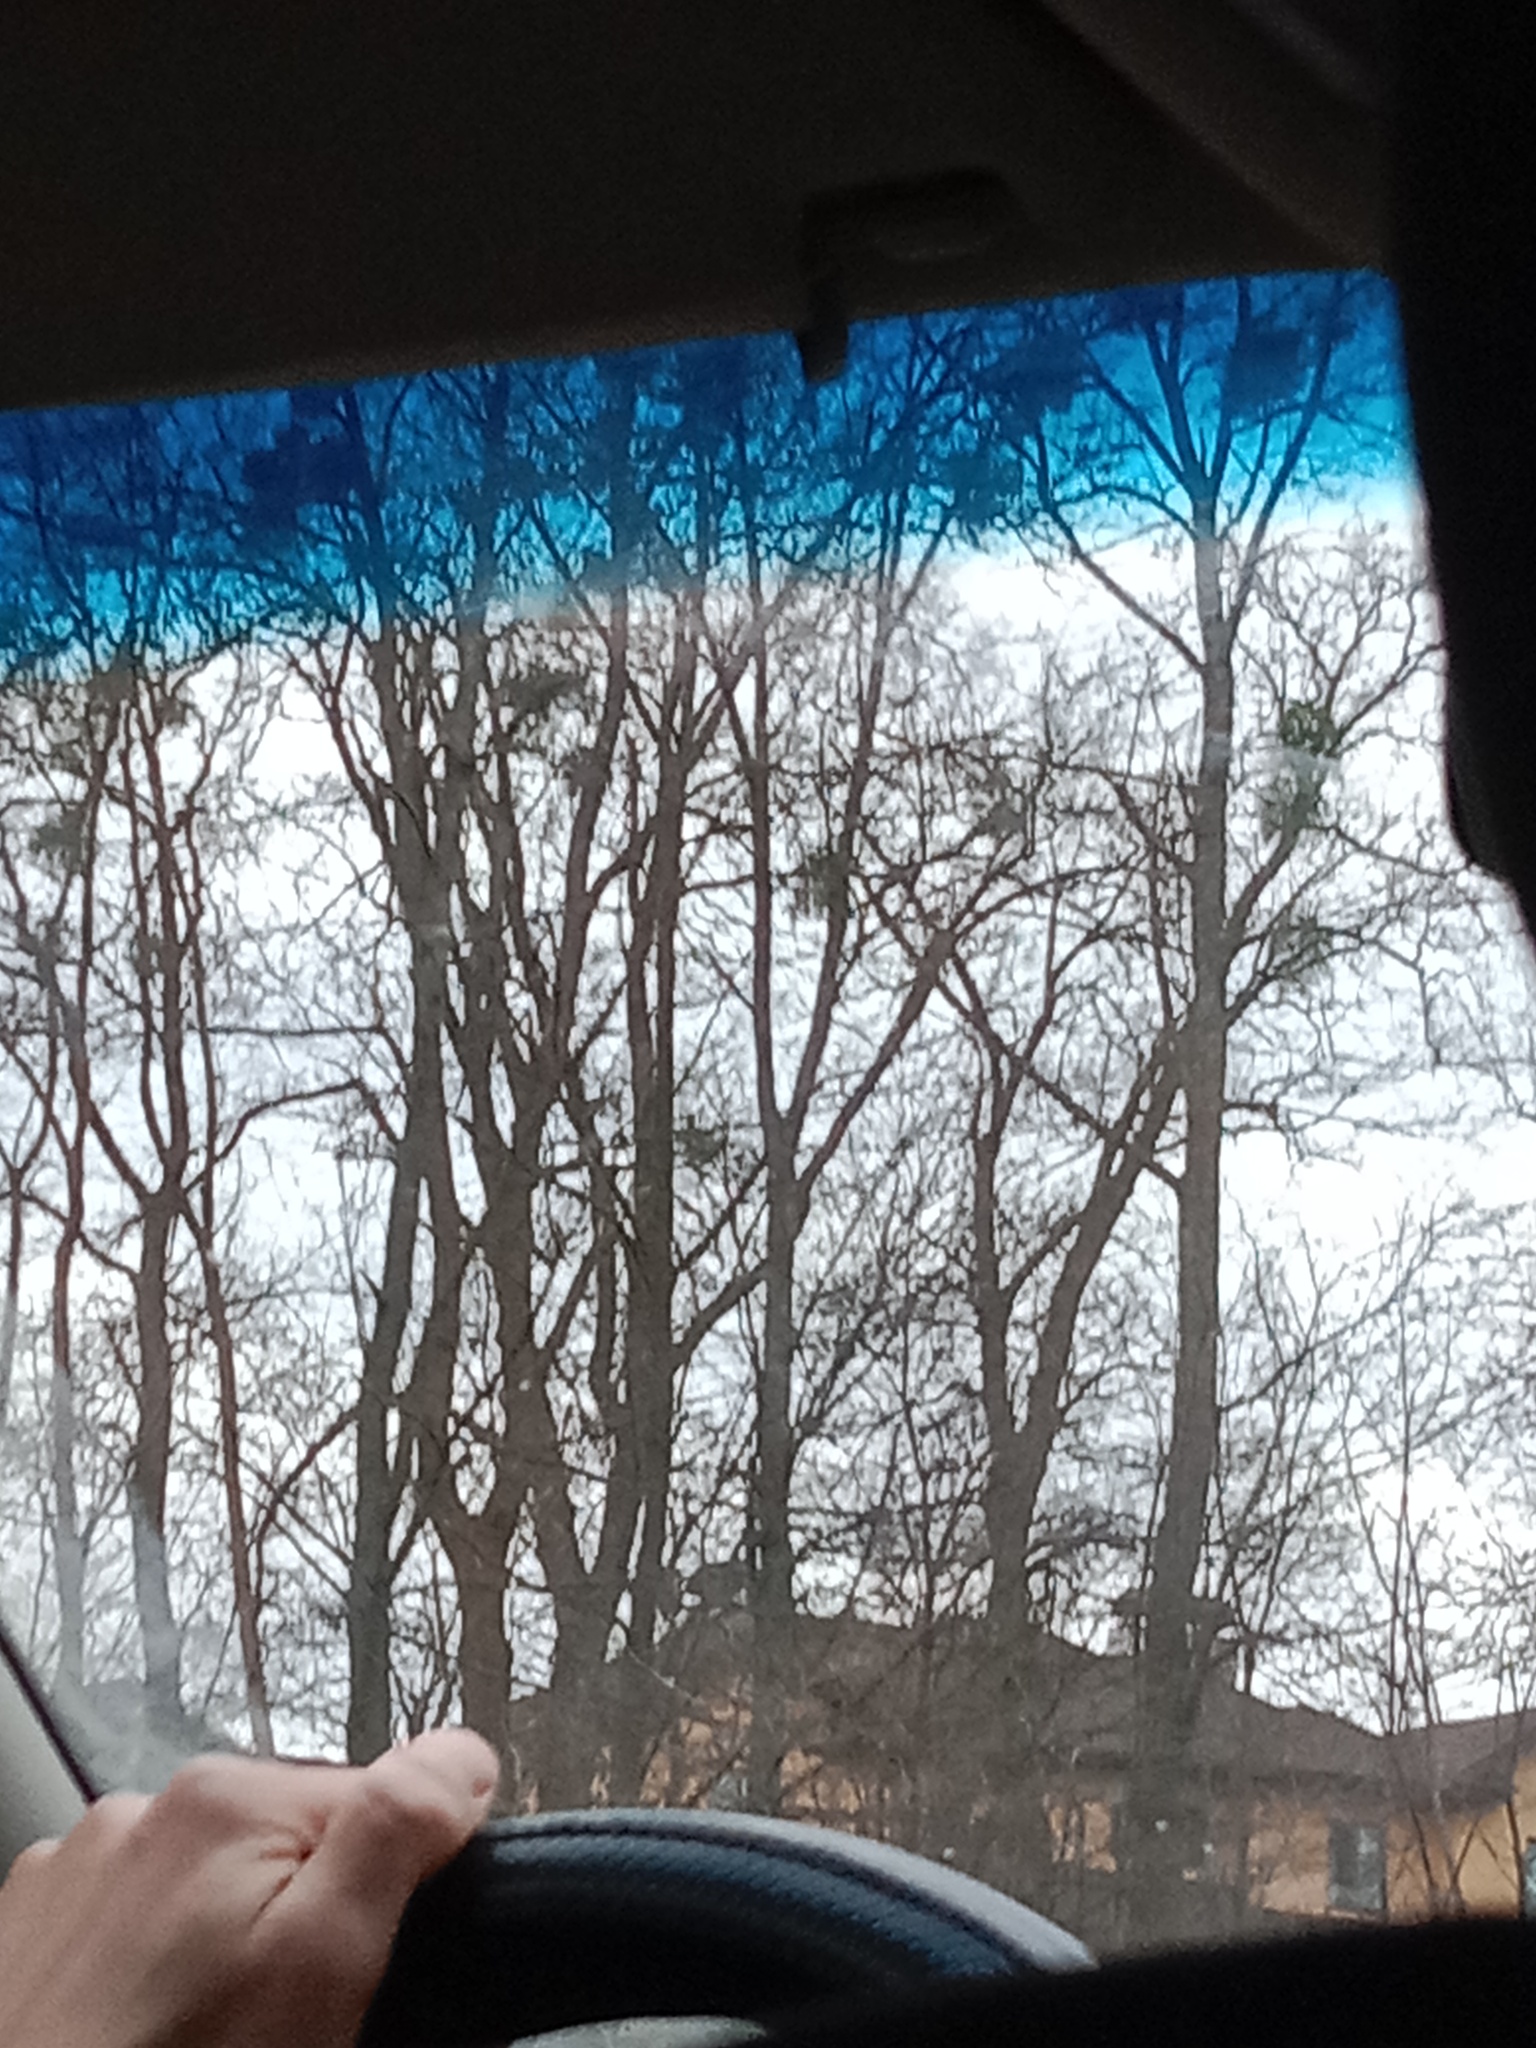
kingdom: Plantae
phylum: Tracheophyta
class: Magnoliopsida
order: Santalales
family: Viscaceae
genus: Viscum
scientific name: Viscum album
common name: Mistletoe
